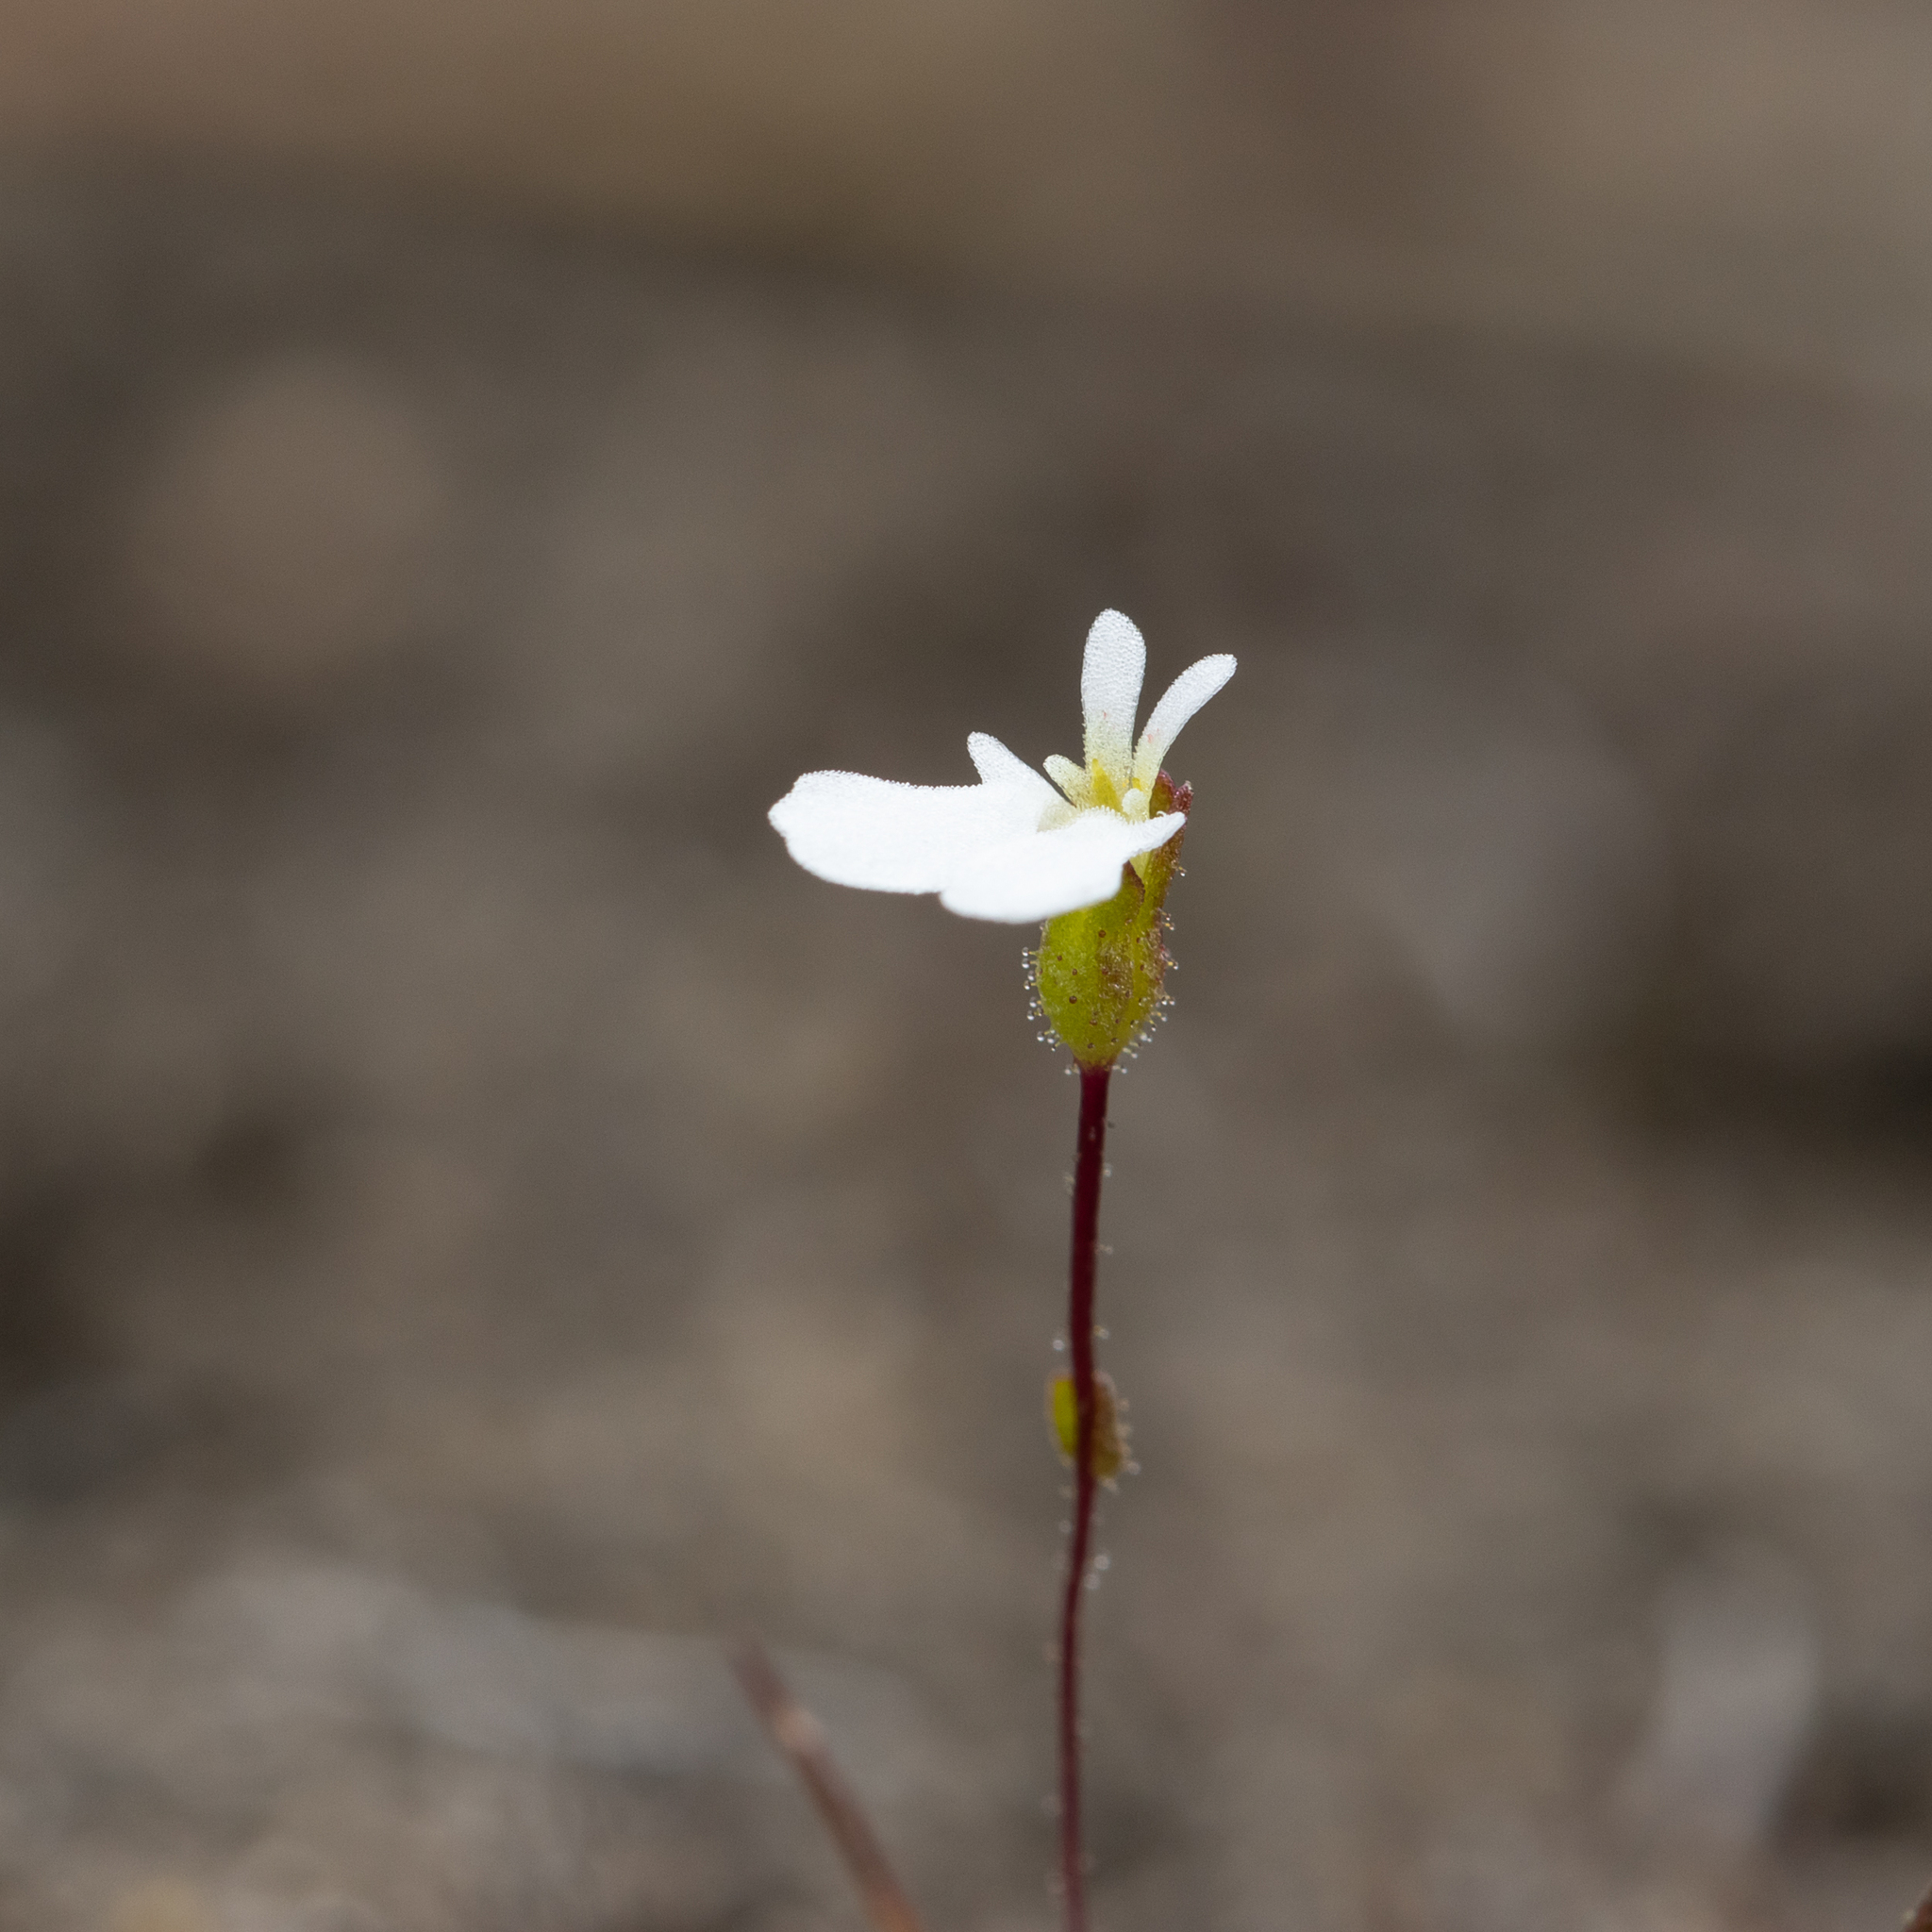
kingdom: Plantae
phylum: Tracheophyta
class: Magnoliopsida
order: Asterales
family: Stylidiaceae
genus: Stylidium
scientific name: Stylidium perpusillum
